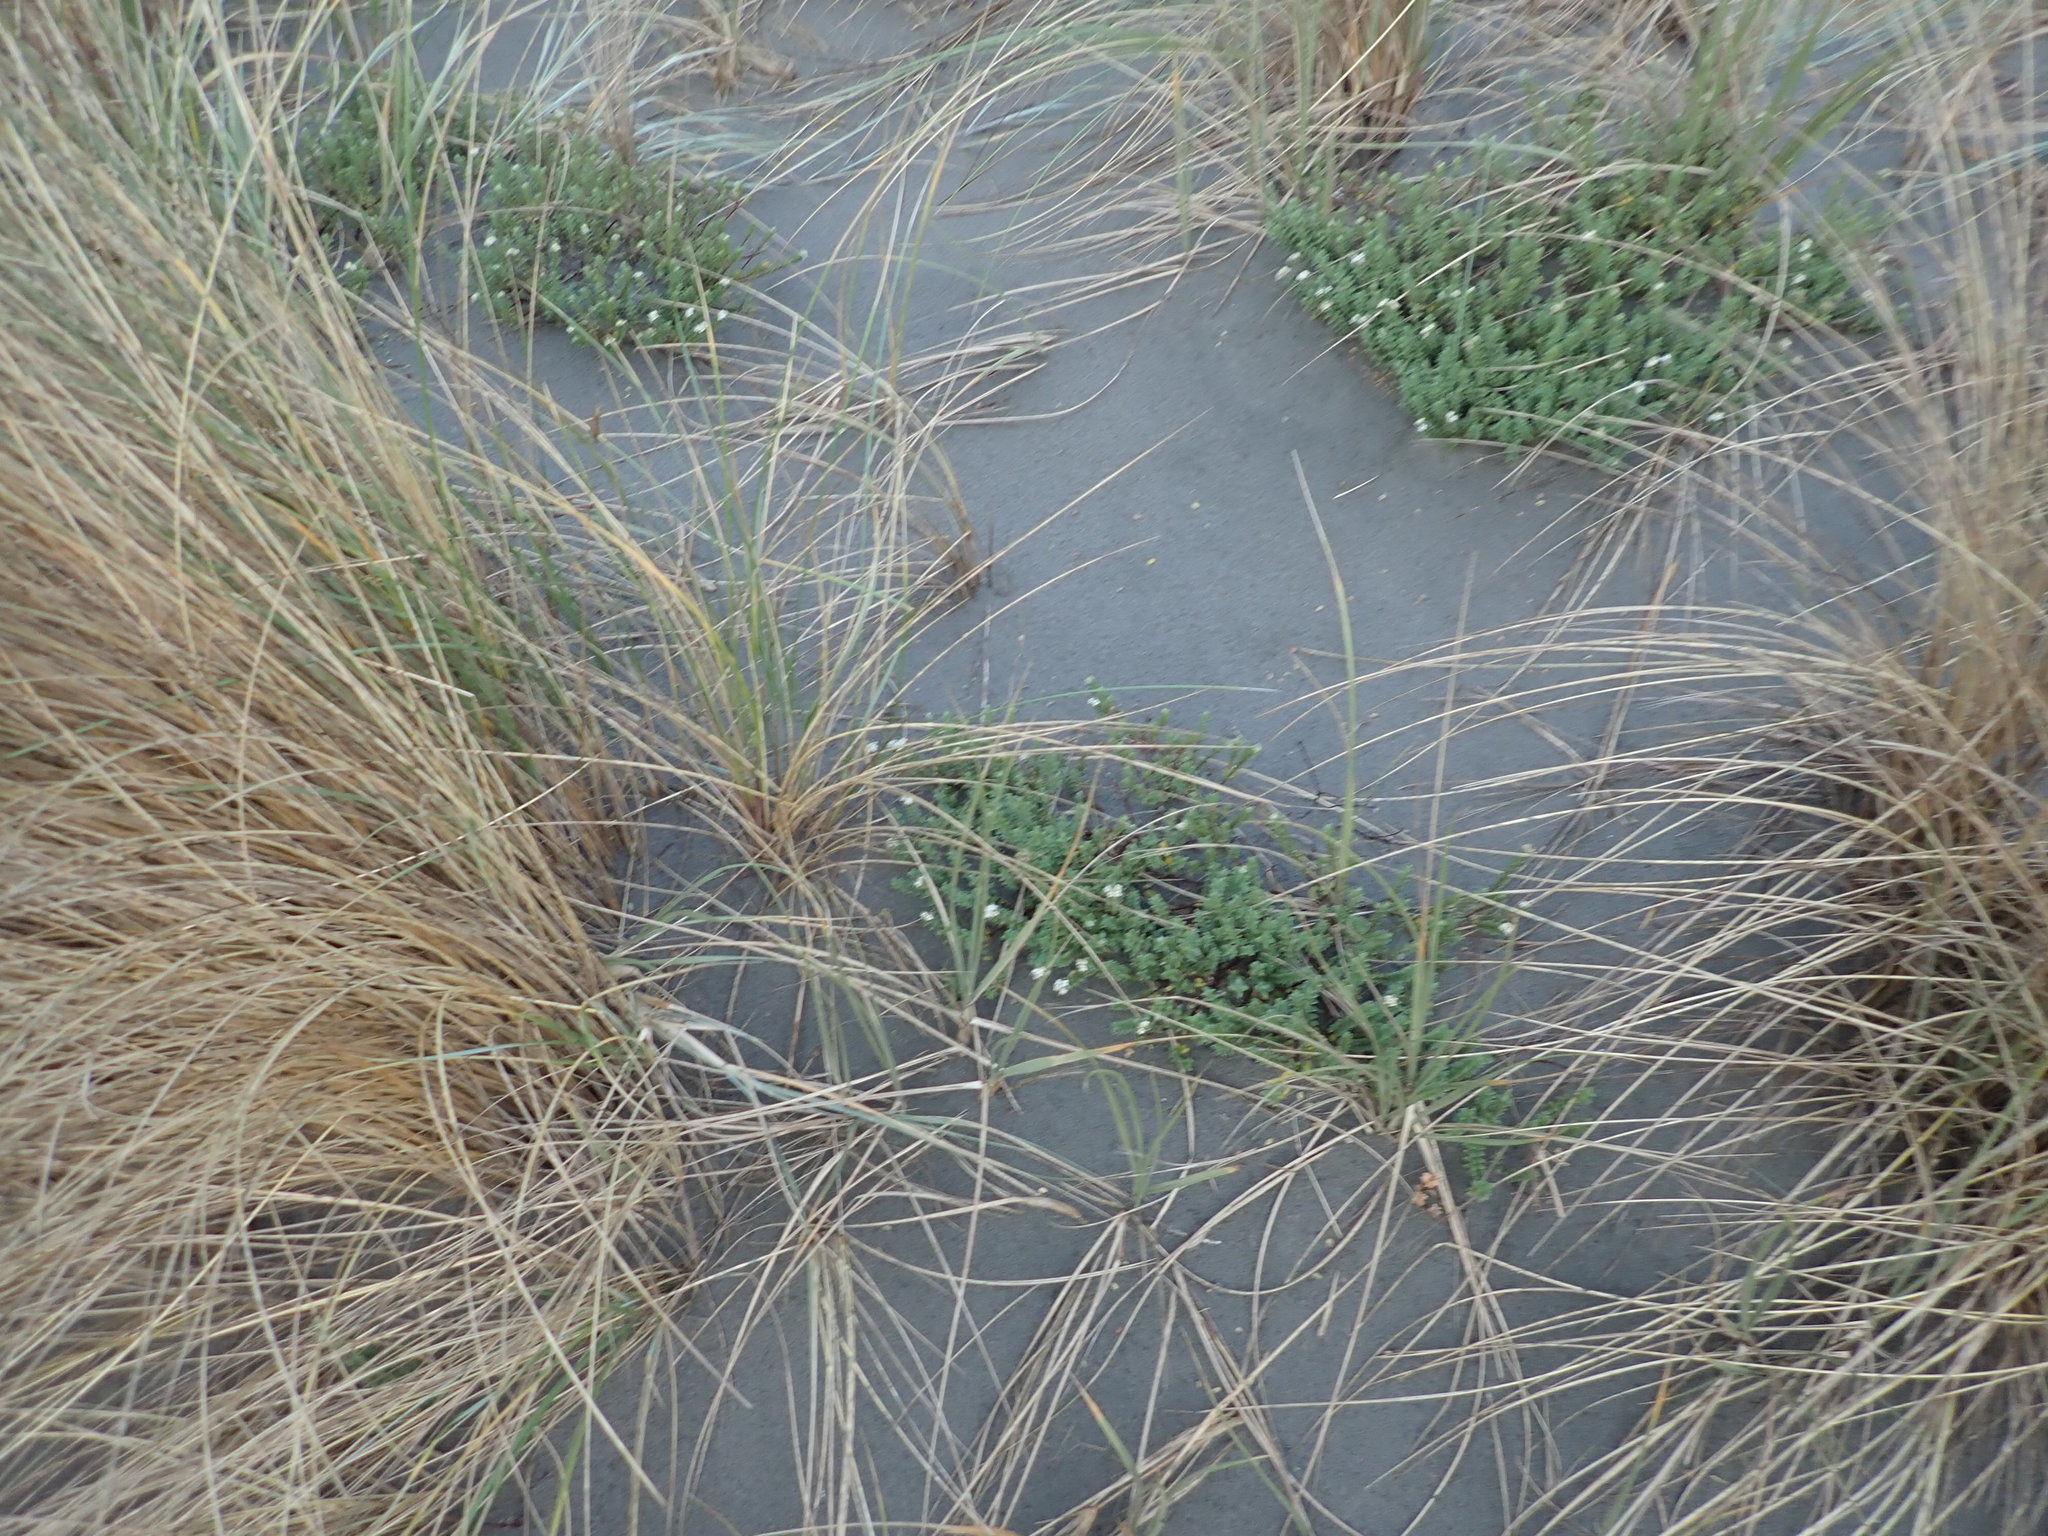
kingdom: Plantae
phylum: Tracheophyta
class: Magnoliopsida
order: Malvales
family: Thymelaeaceae
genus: Pimelea
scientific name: Pimelea villosa
